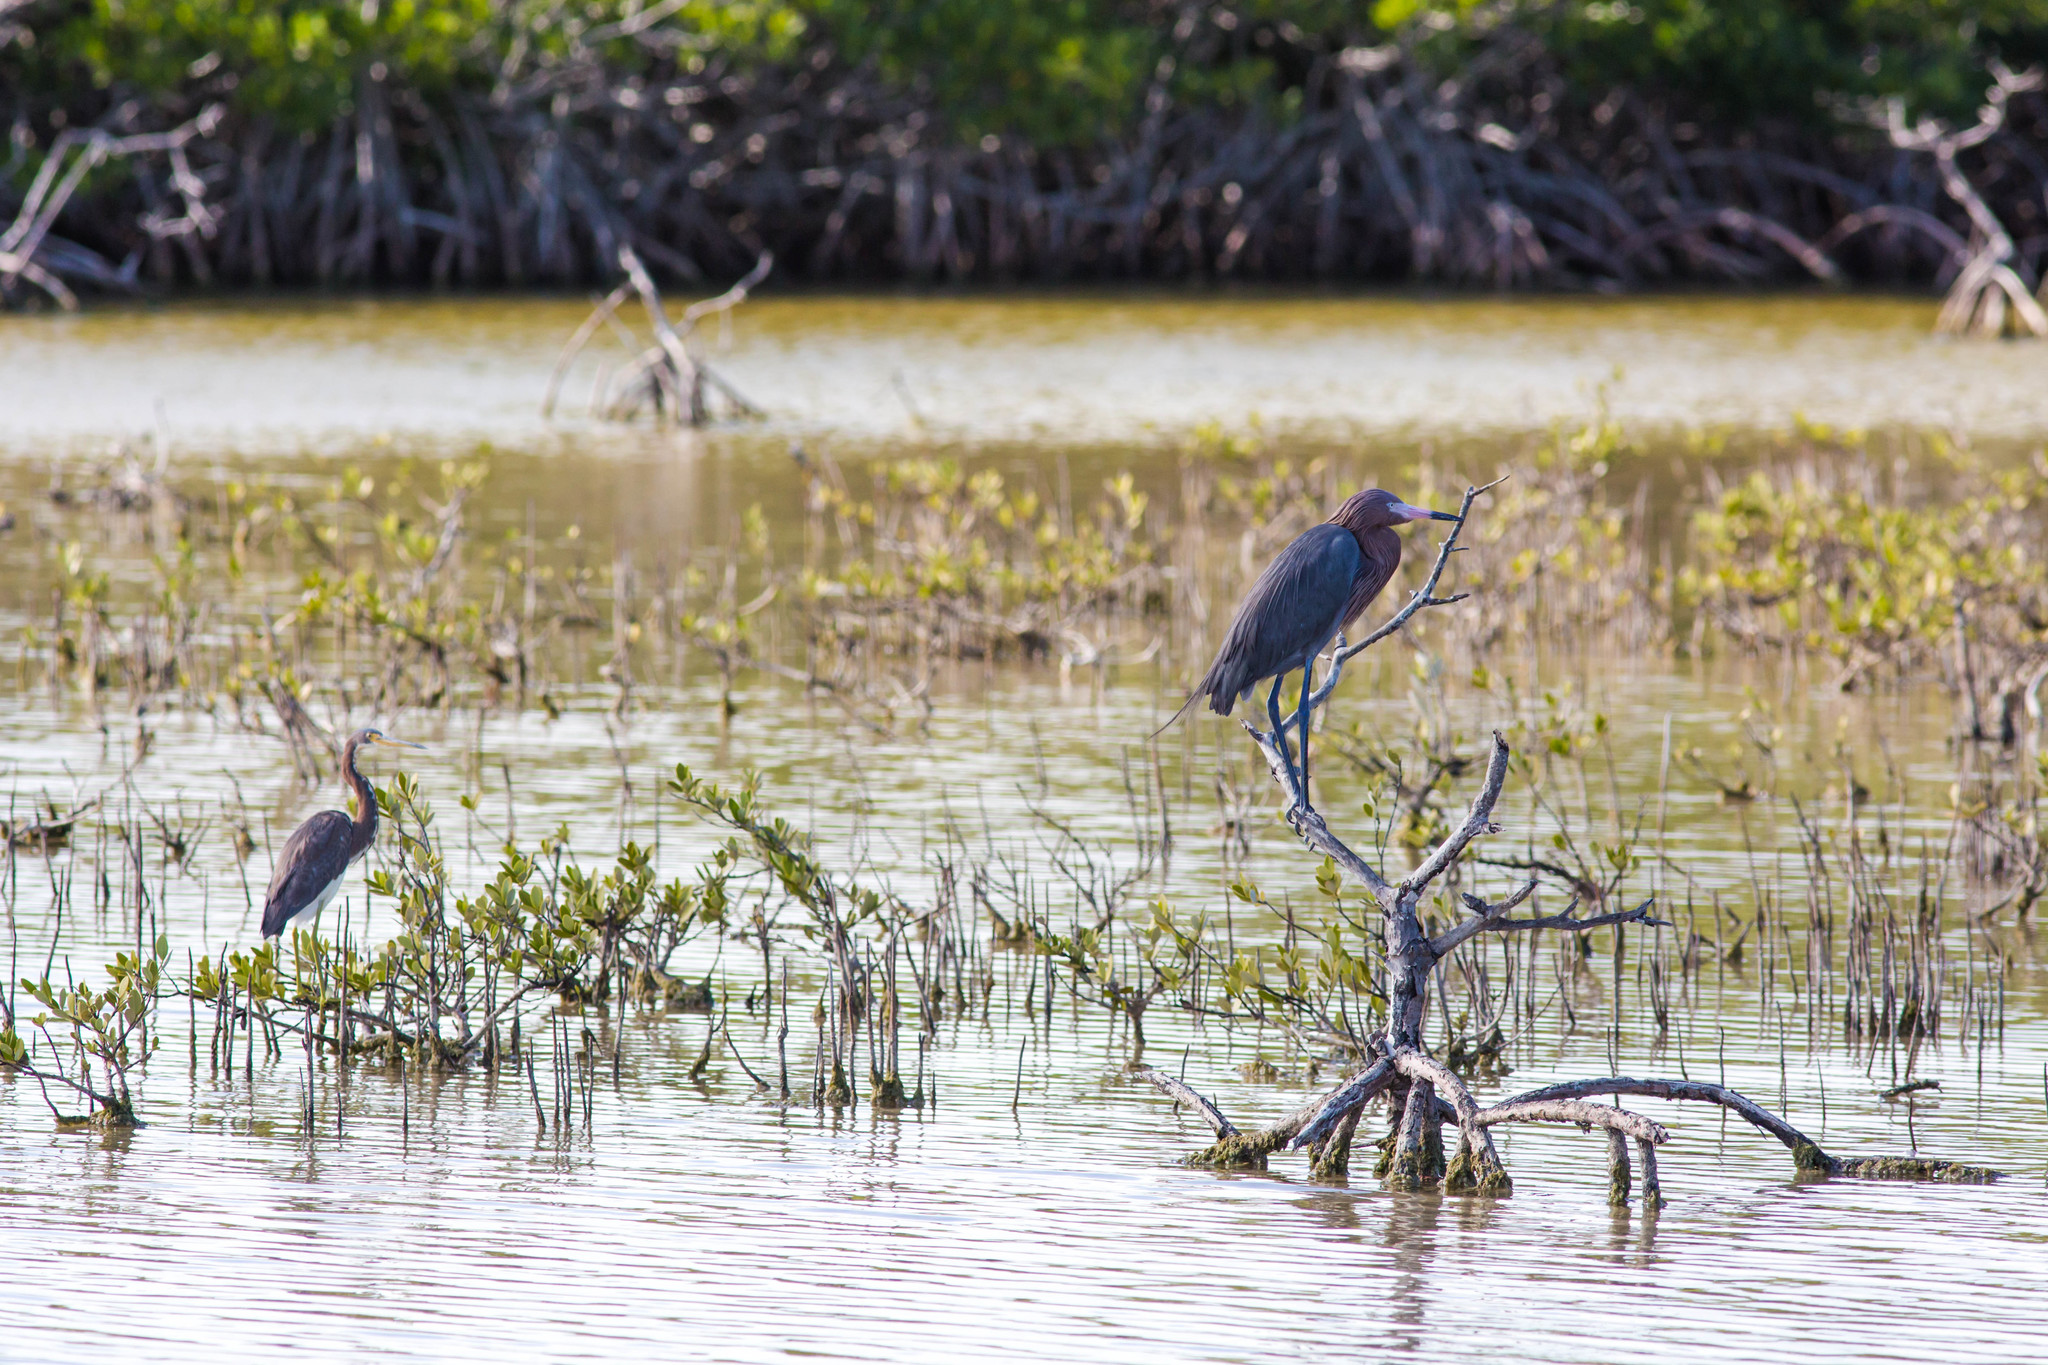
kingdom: Animalia
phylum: Chordata
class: Aves
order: Pelecaniformes
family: Ardeidae
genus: Egretta
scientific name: Egretta rufescens
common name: Reddish egret
